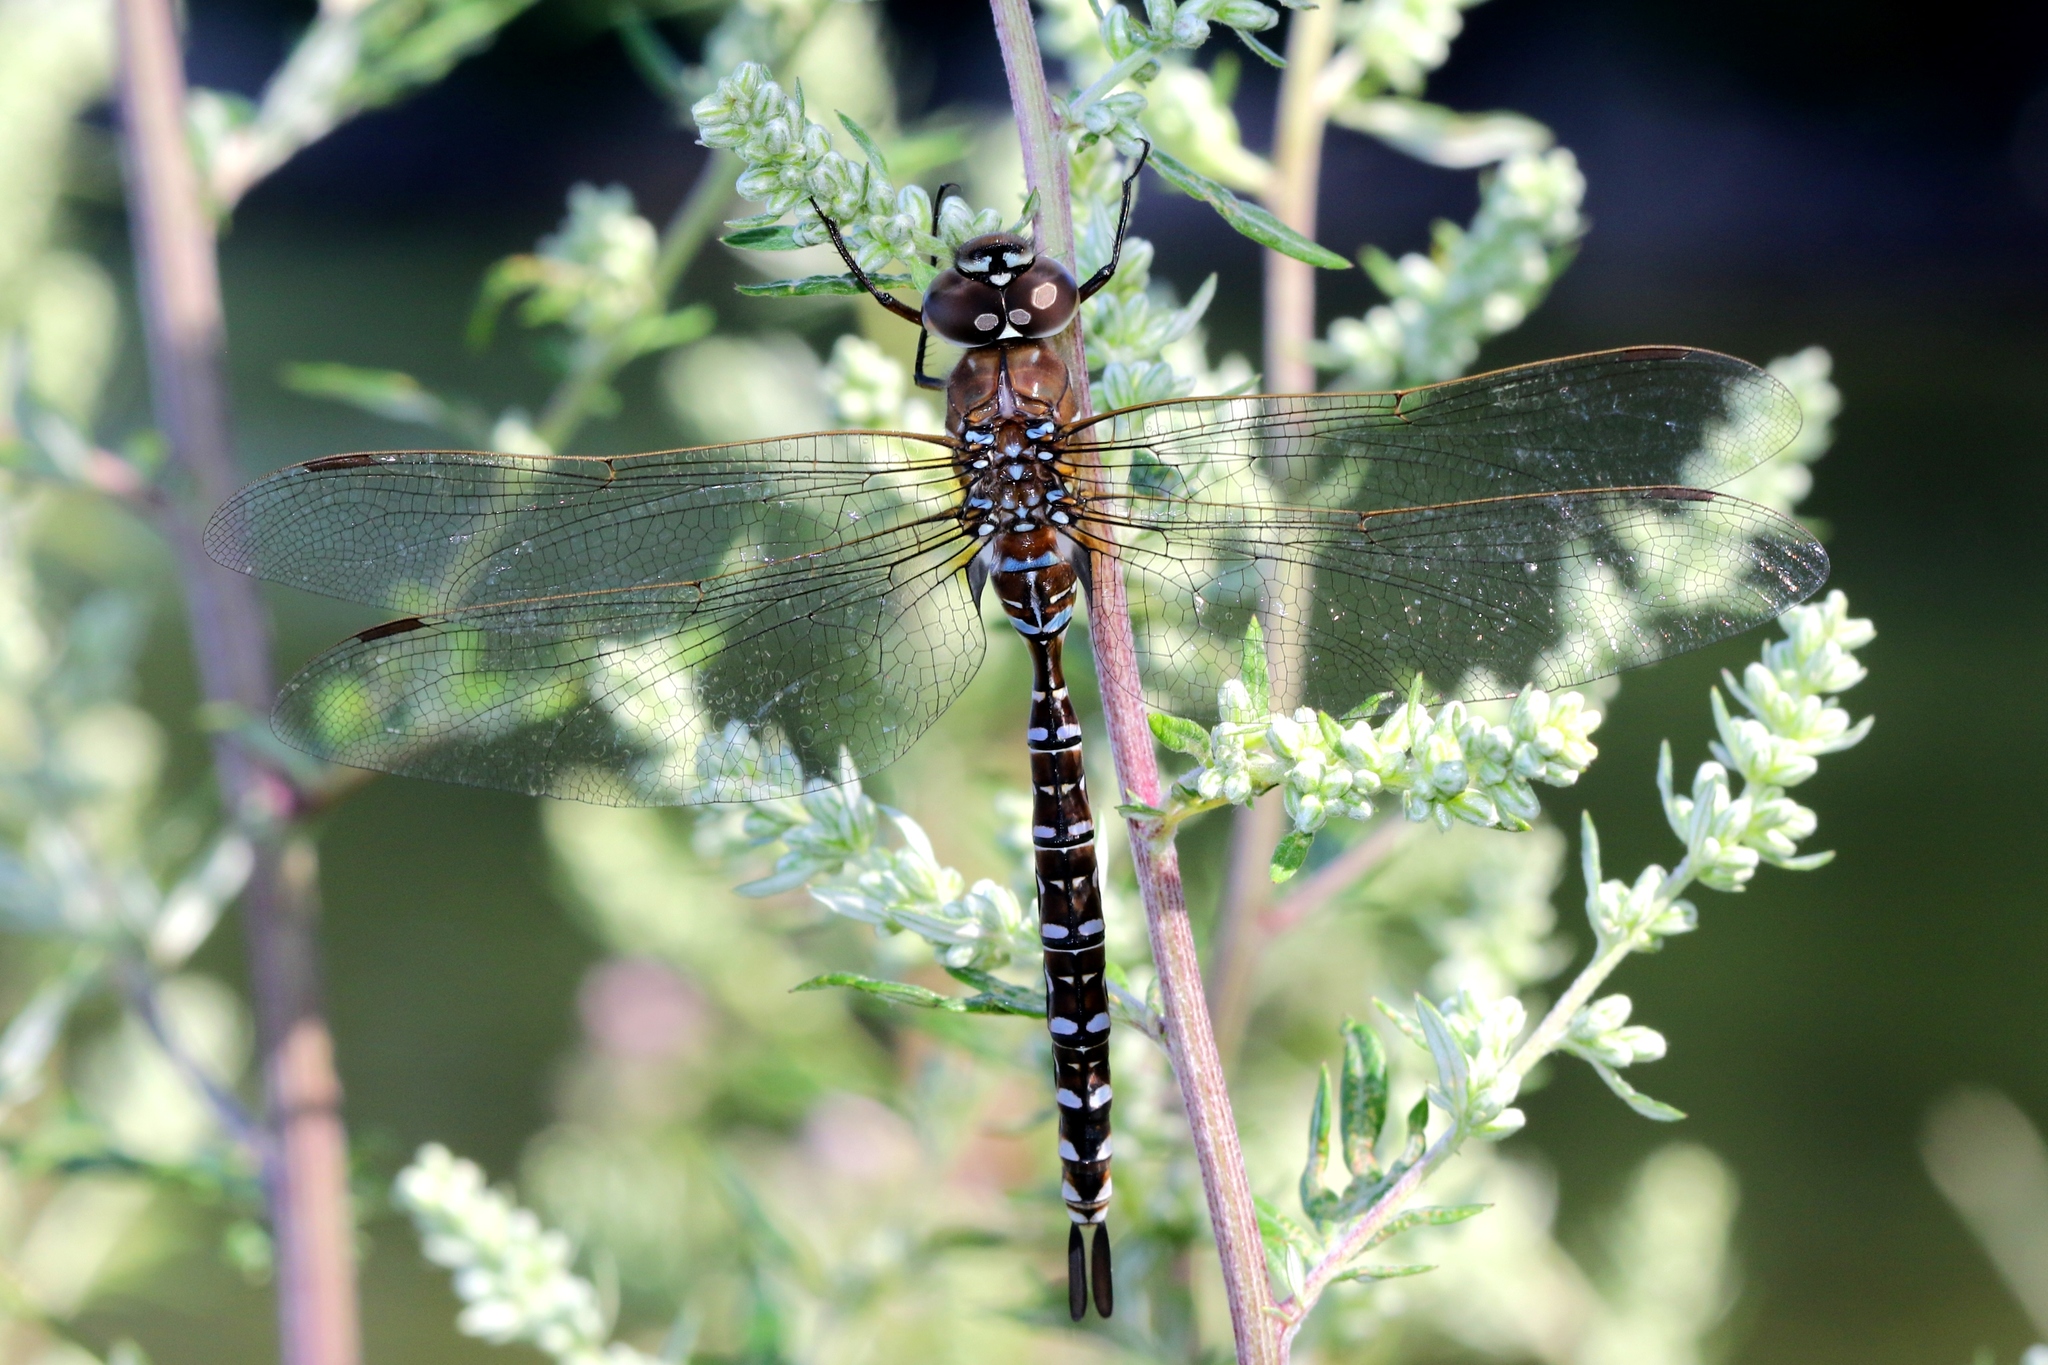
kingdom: Animalia
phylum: Arthropoda
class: Insecta
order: Odonata
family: Aeshnidae
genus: Aeshna
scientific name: Aeshna interrupta
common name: Variable darner
